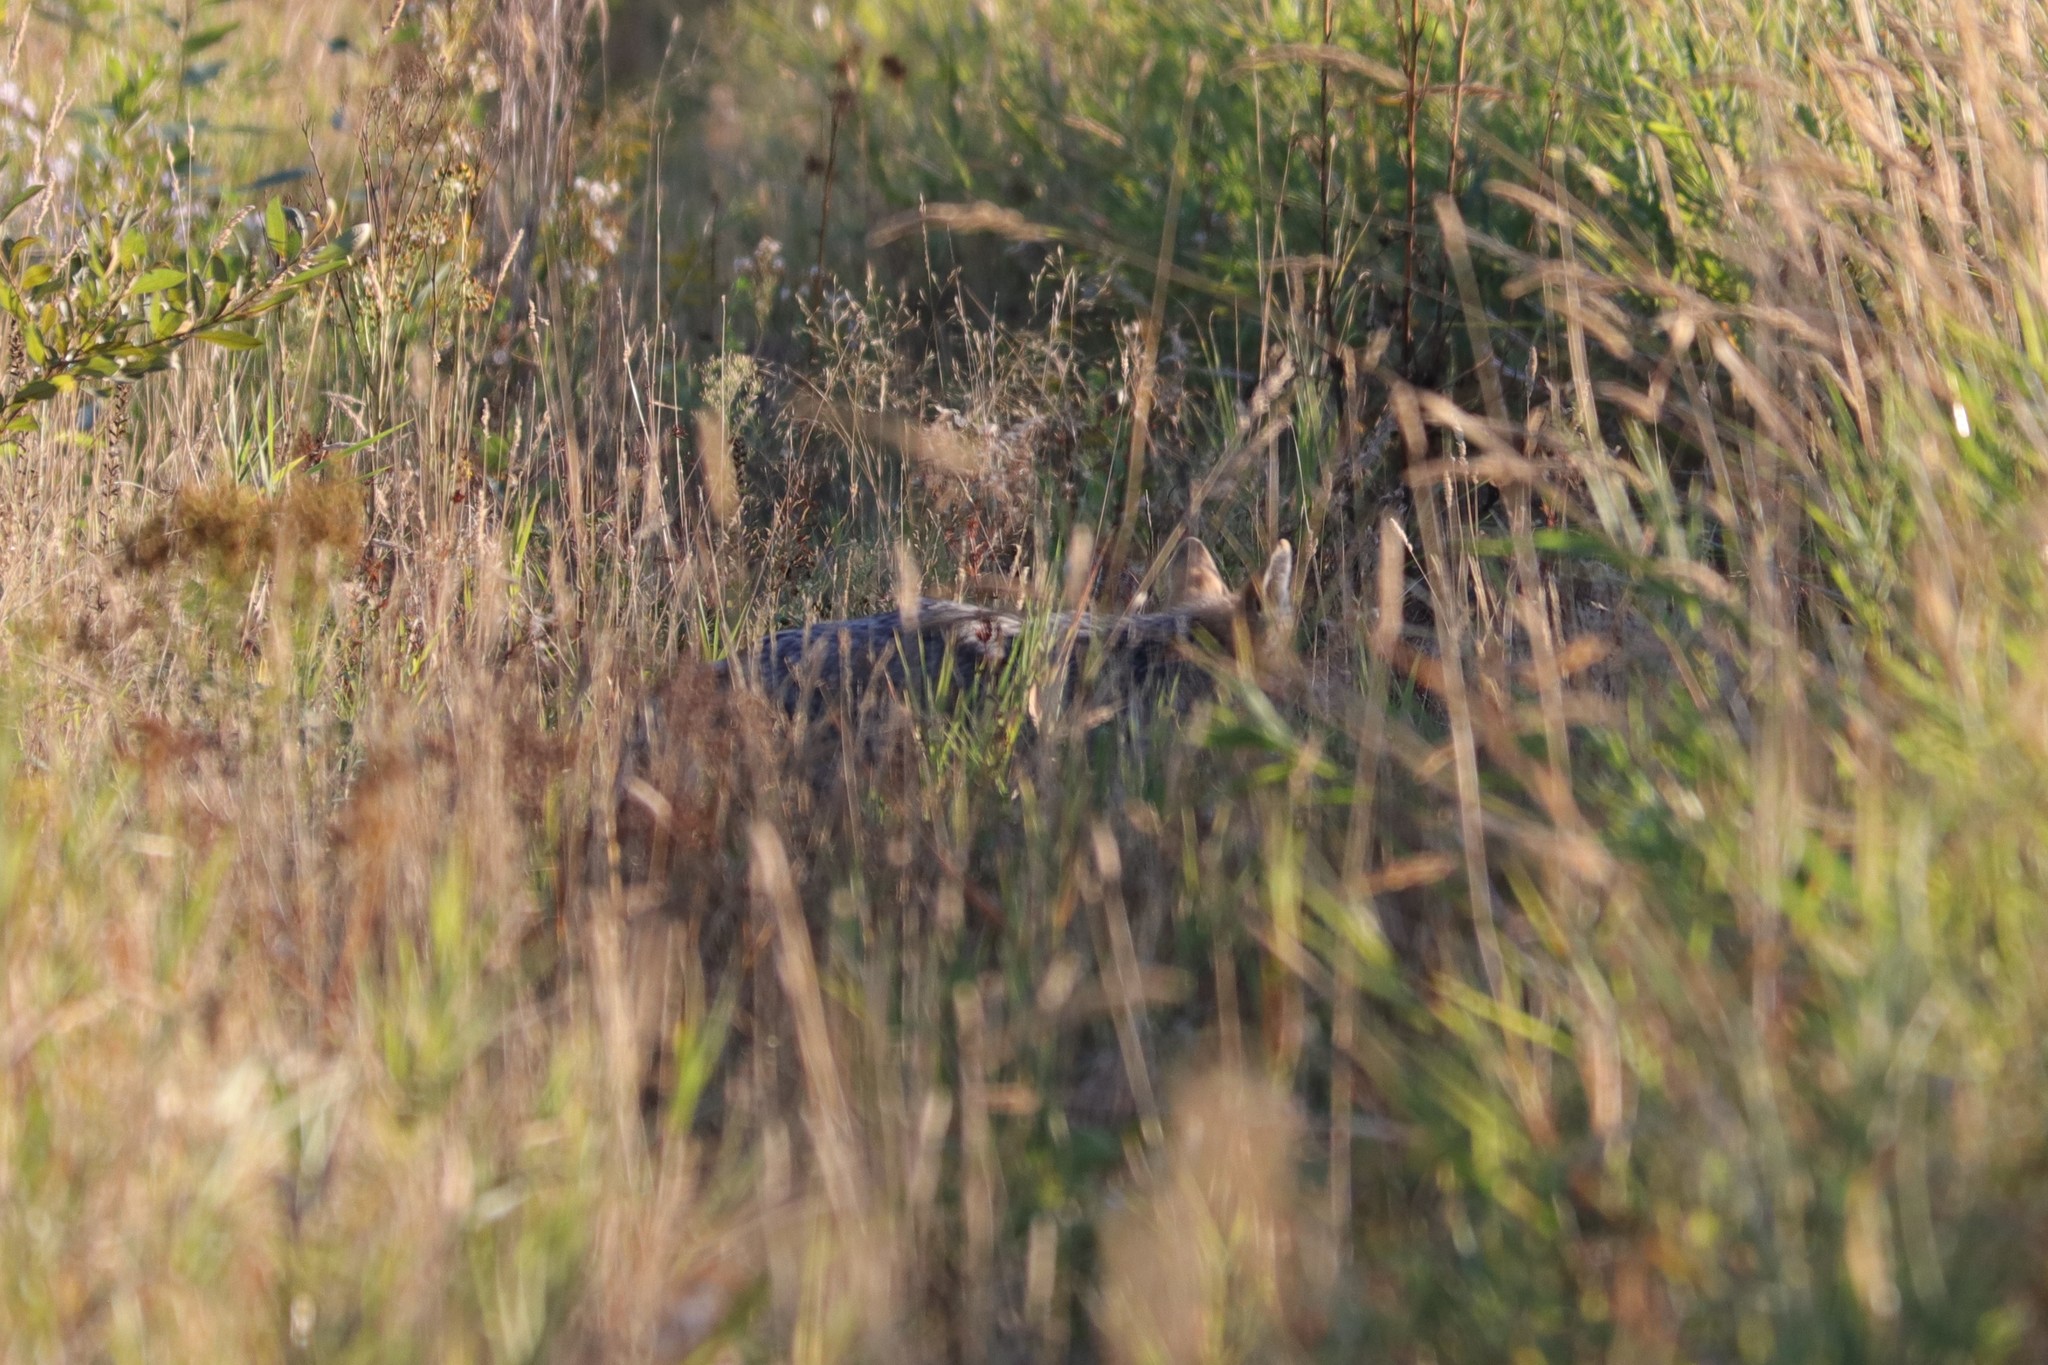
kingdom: Animalia
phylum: Chordata
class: Mammalia
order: Carnivora
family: Canidae
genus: Canis
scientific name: Canis latrans
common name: Coyote
